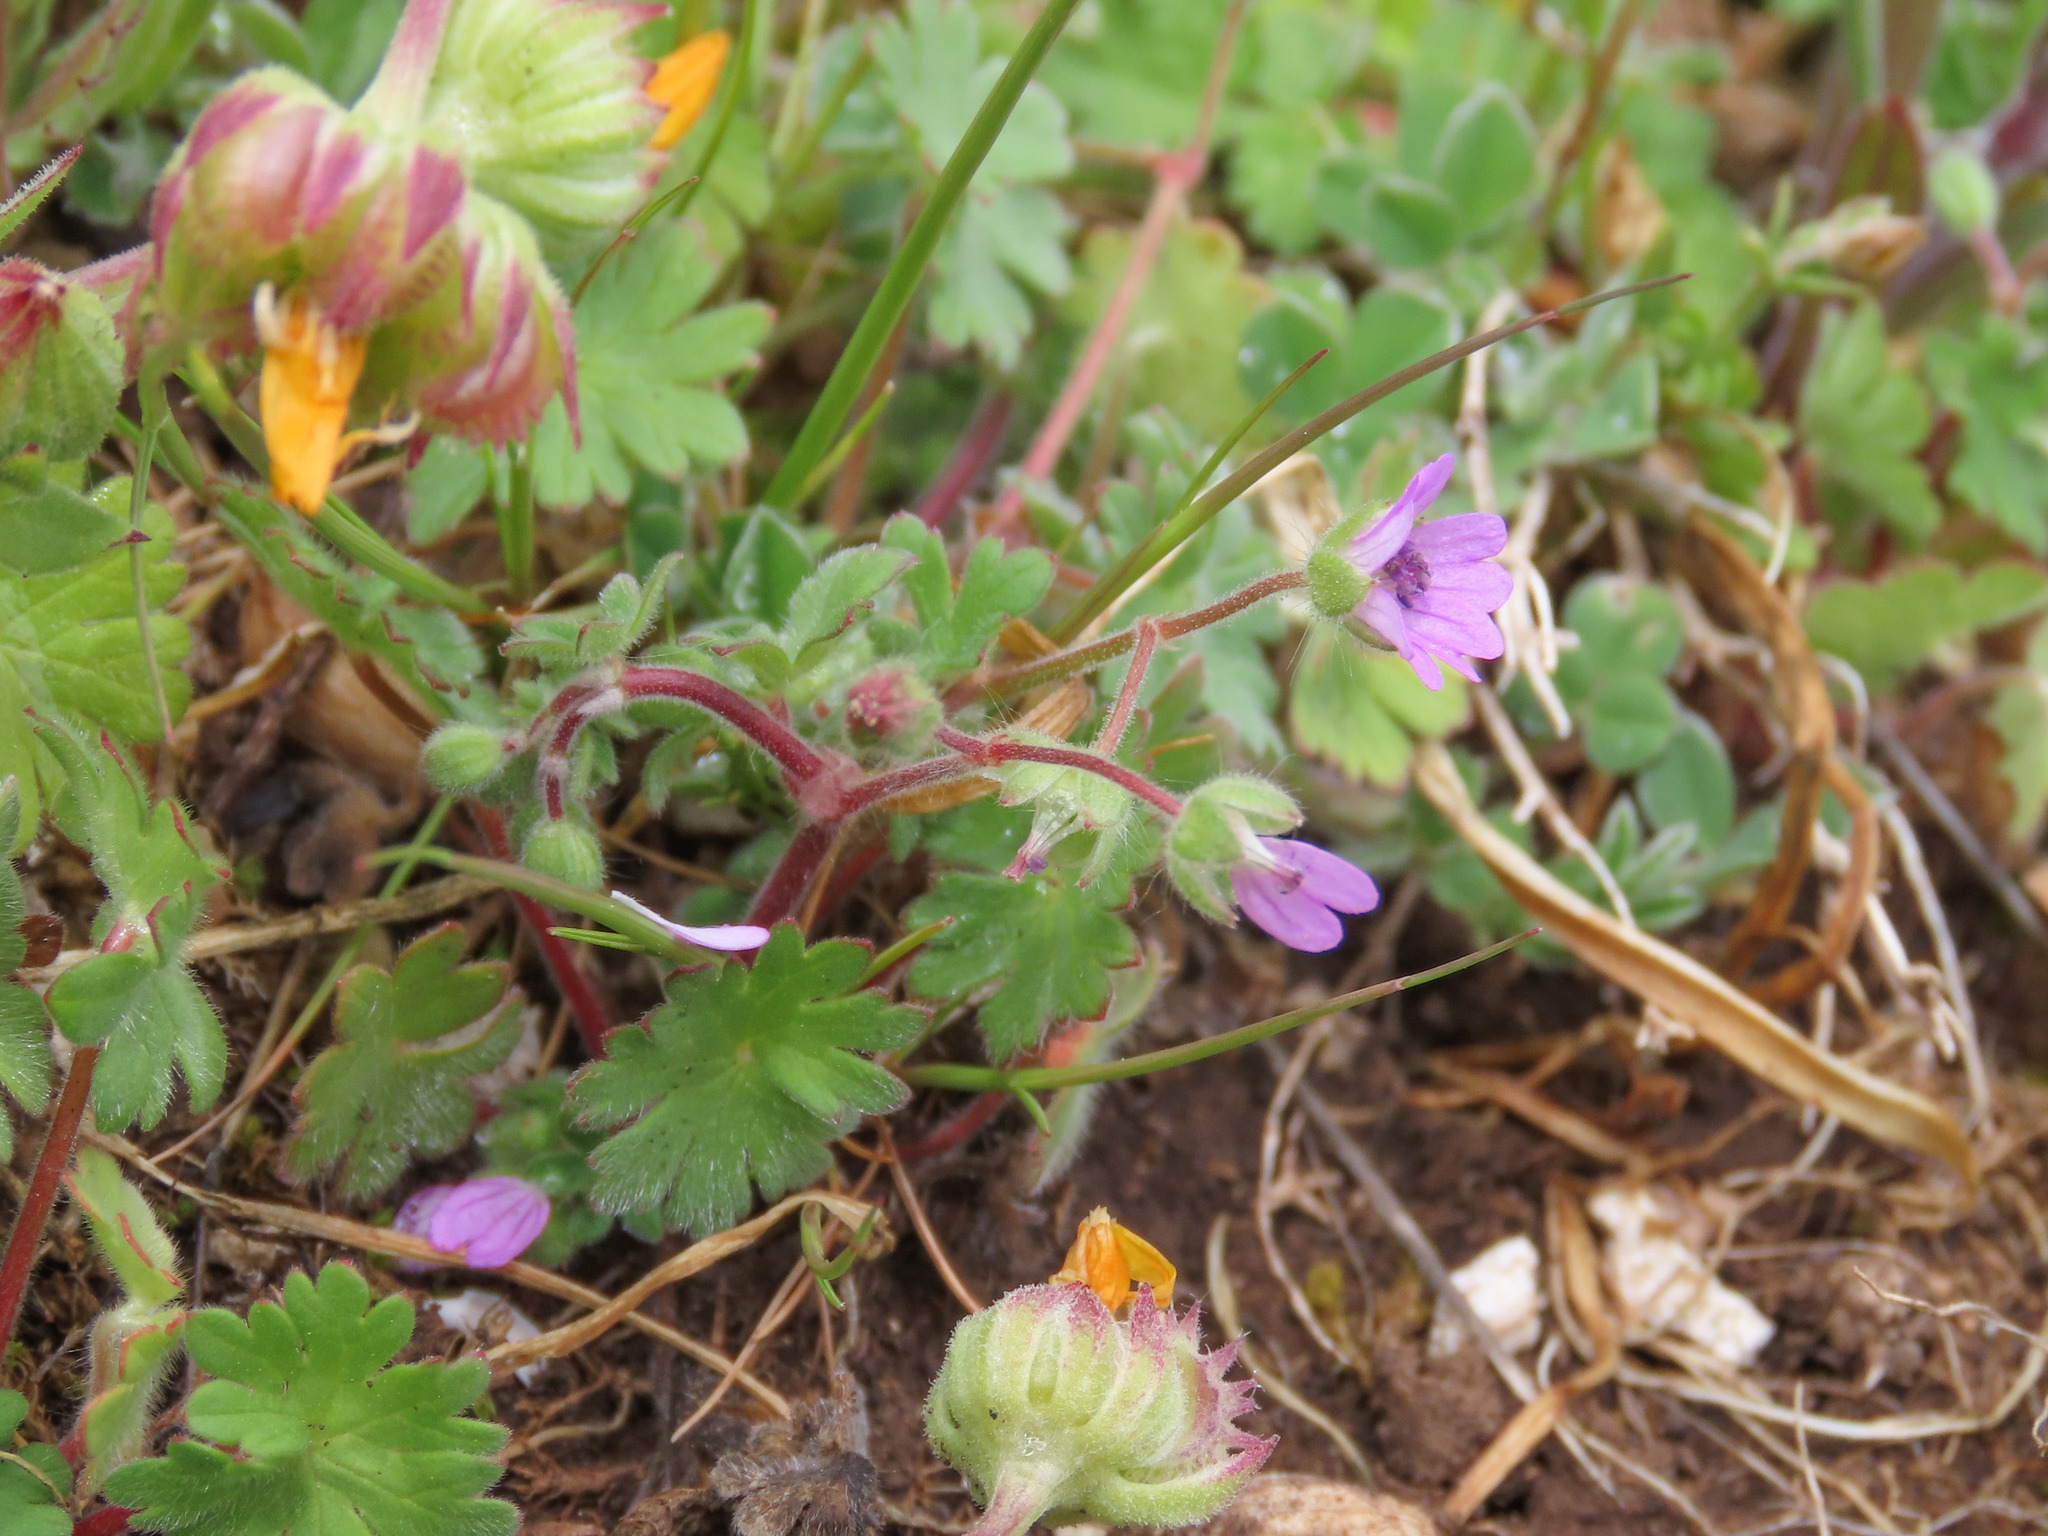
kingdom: Plantae
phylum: Tracheophyta
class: Magnoliopsida
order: Geraniales
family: Geraniaceae
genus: Geranium
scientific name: Geranium molle
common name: Dove's-foot crane's-bill
